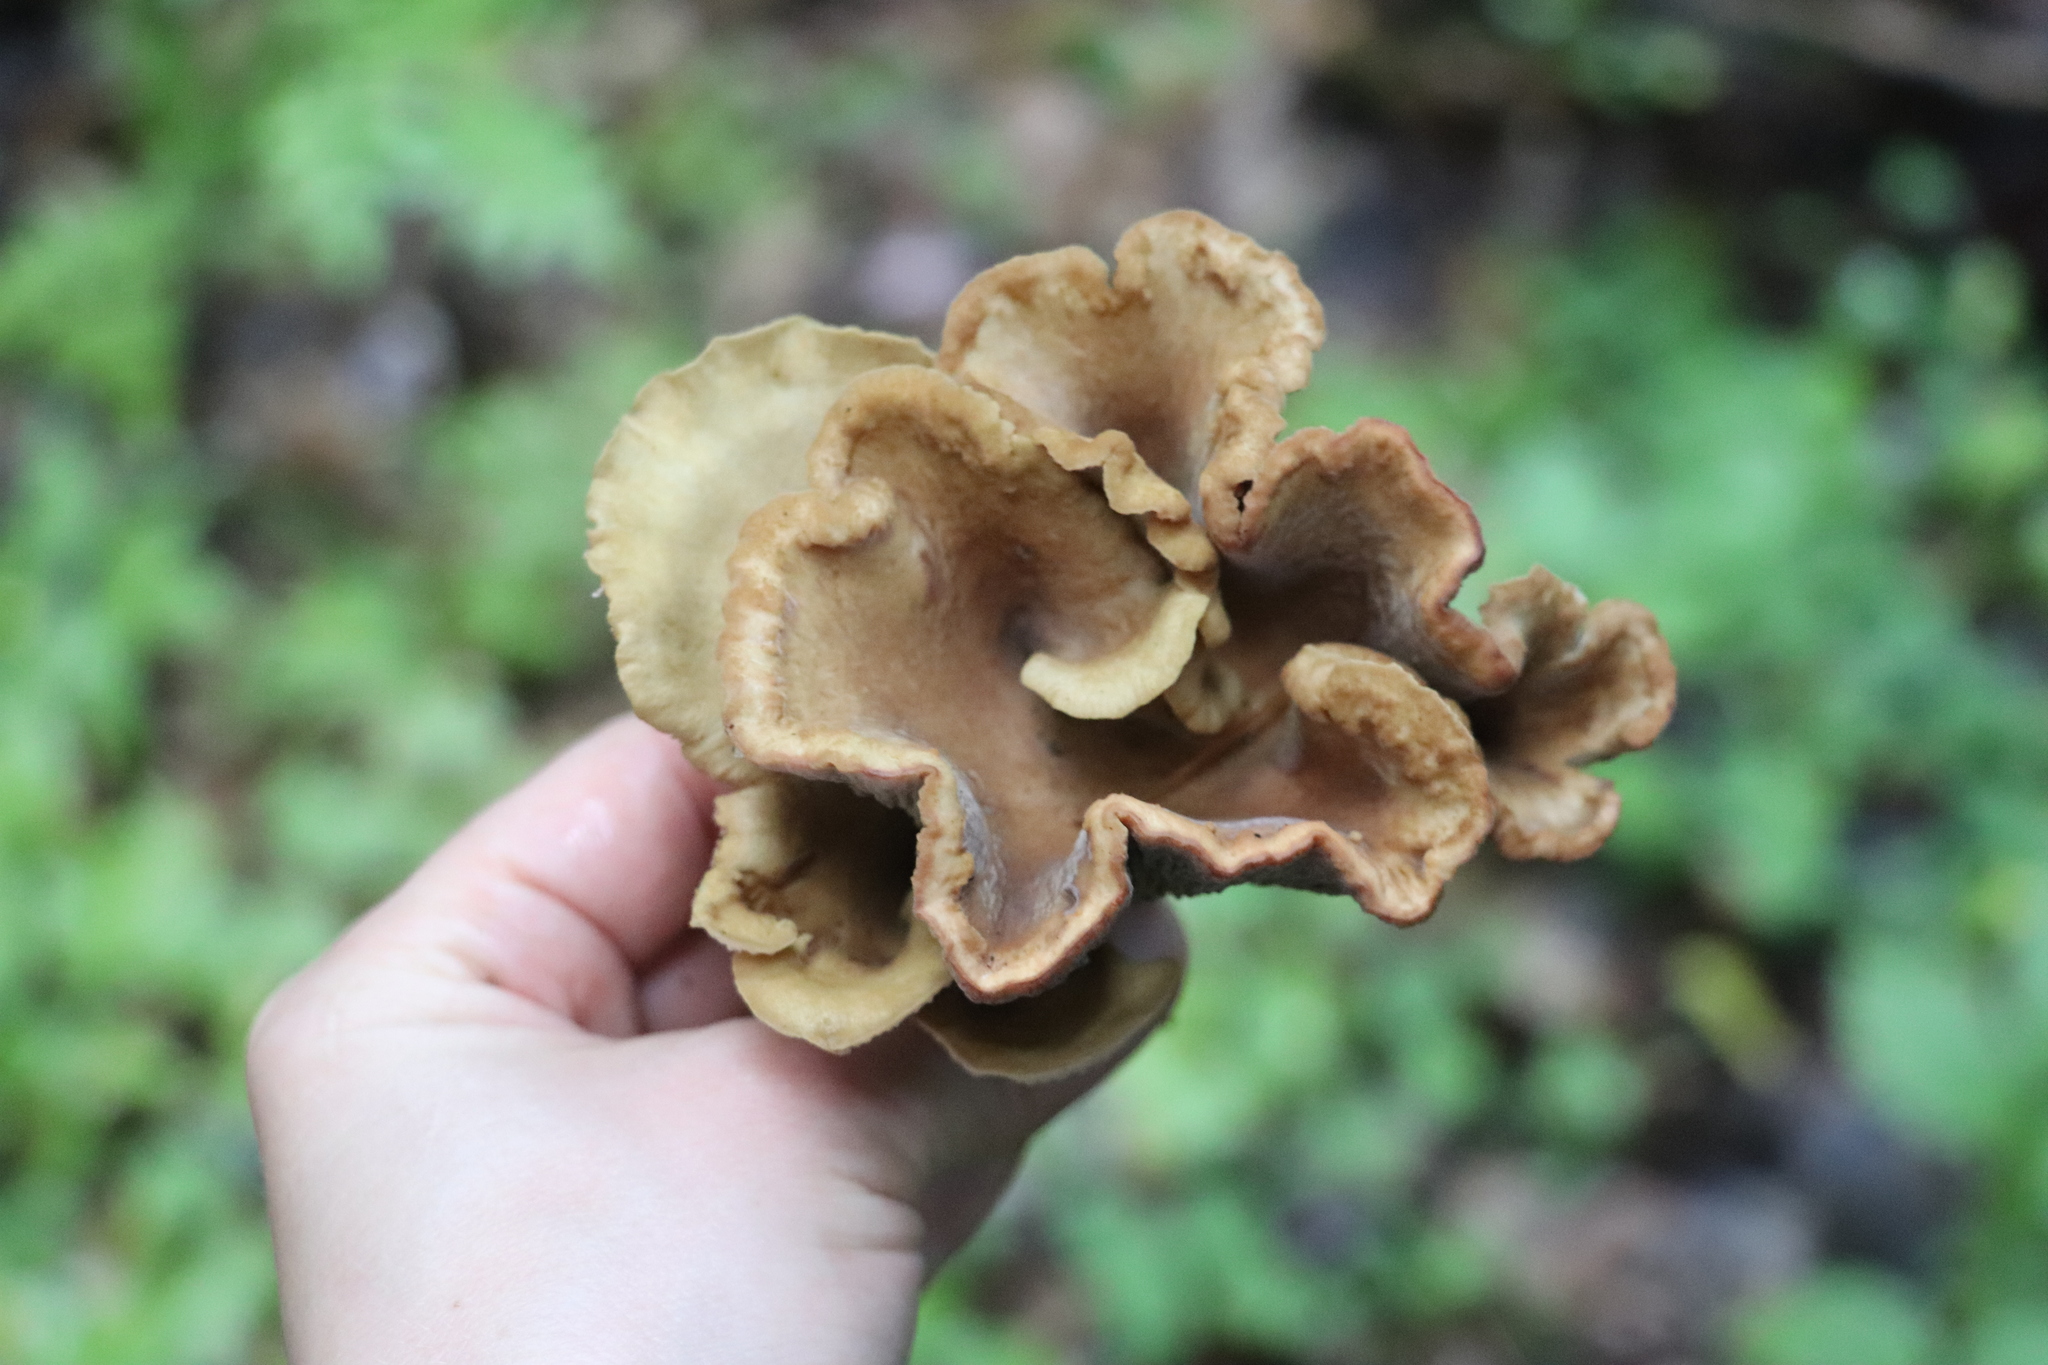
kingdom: Fungi
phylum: Basidiomycota
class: Agaricomycetes
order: Gomphales
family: Gomphaceae
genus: Gomphus
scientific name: Gomphus clavatus
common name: Pig's ear
